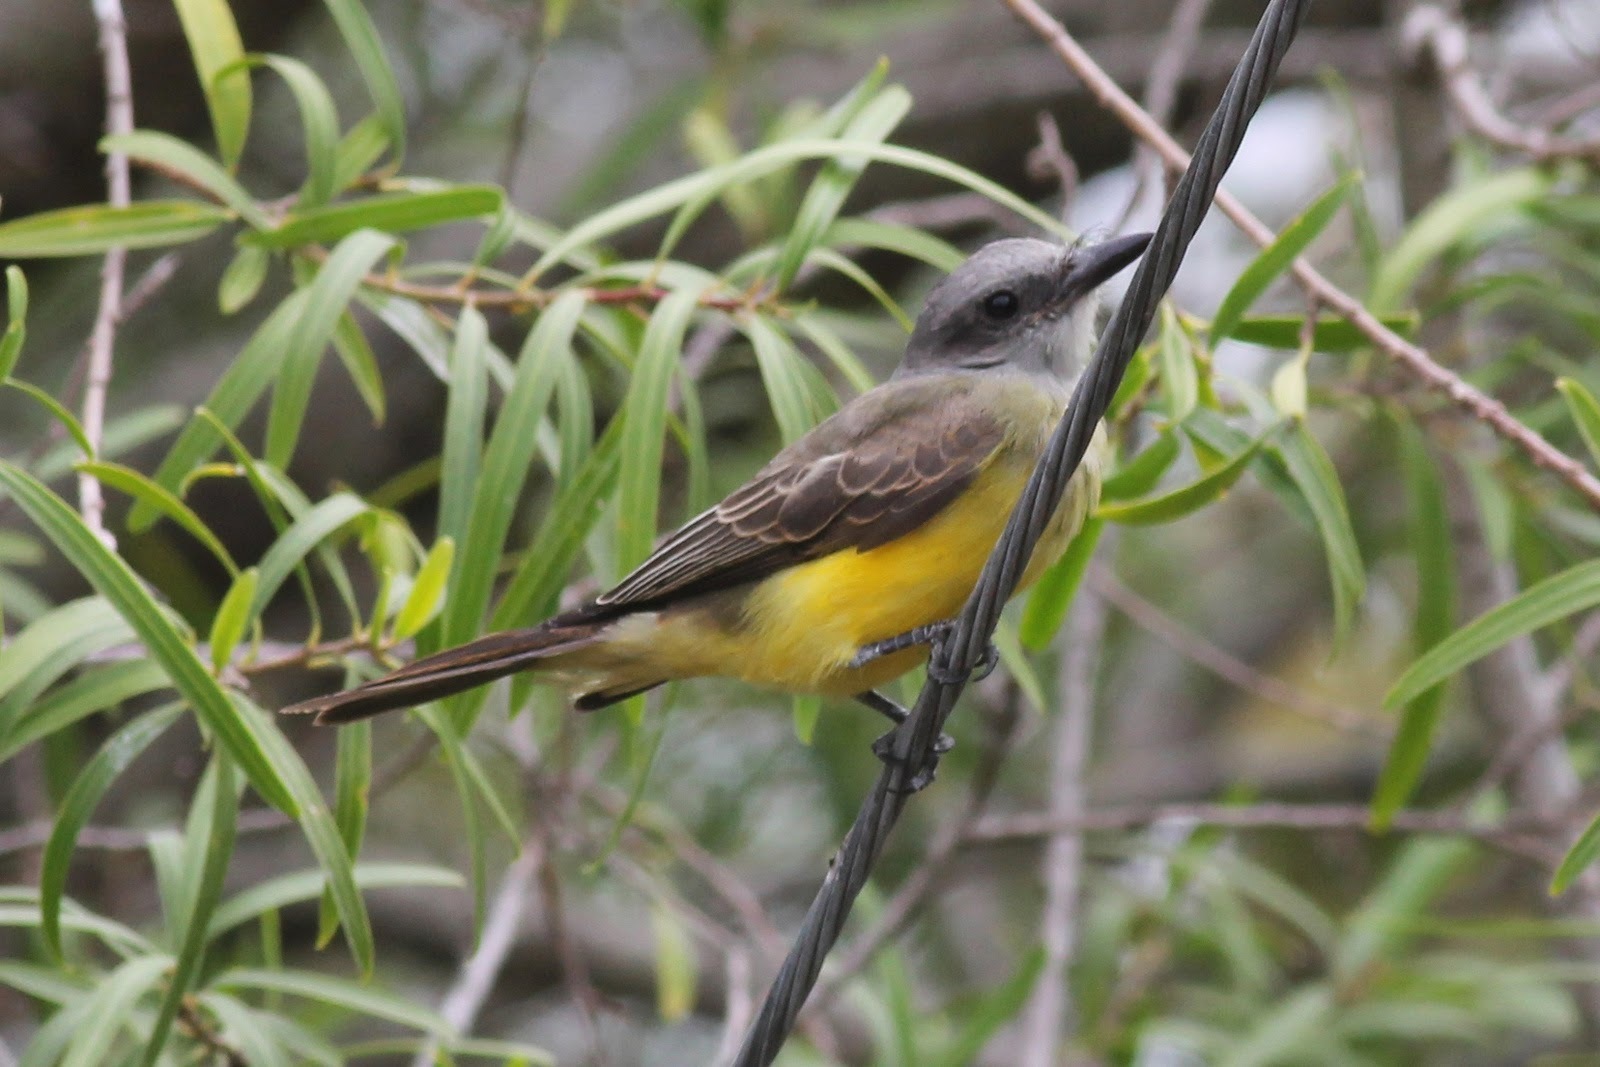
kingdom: Animalia
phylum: Chordata
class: Aves
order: Passeriformes
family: Tyrannidae
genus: Tyrannus
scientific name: Tyrannus melancholicus
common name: Tropical kingbird
